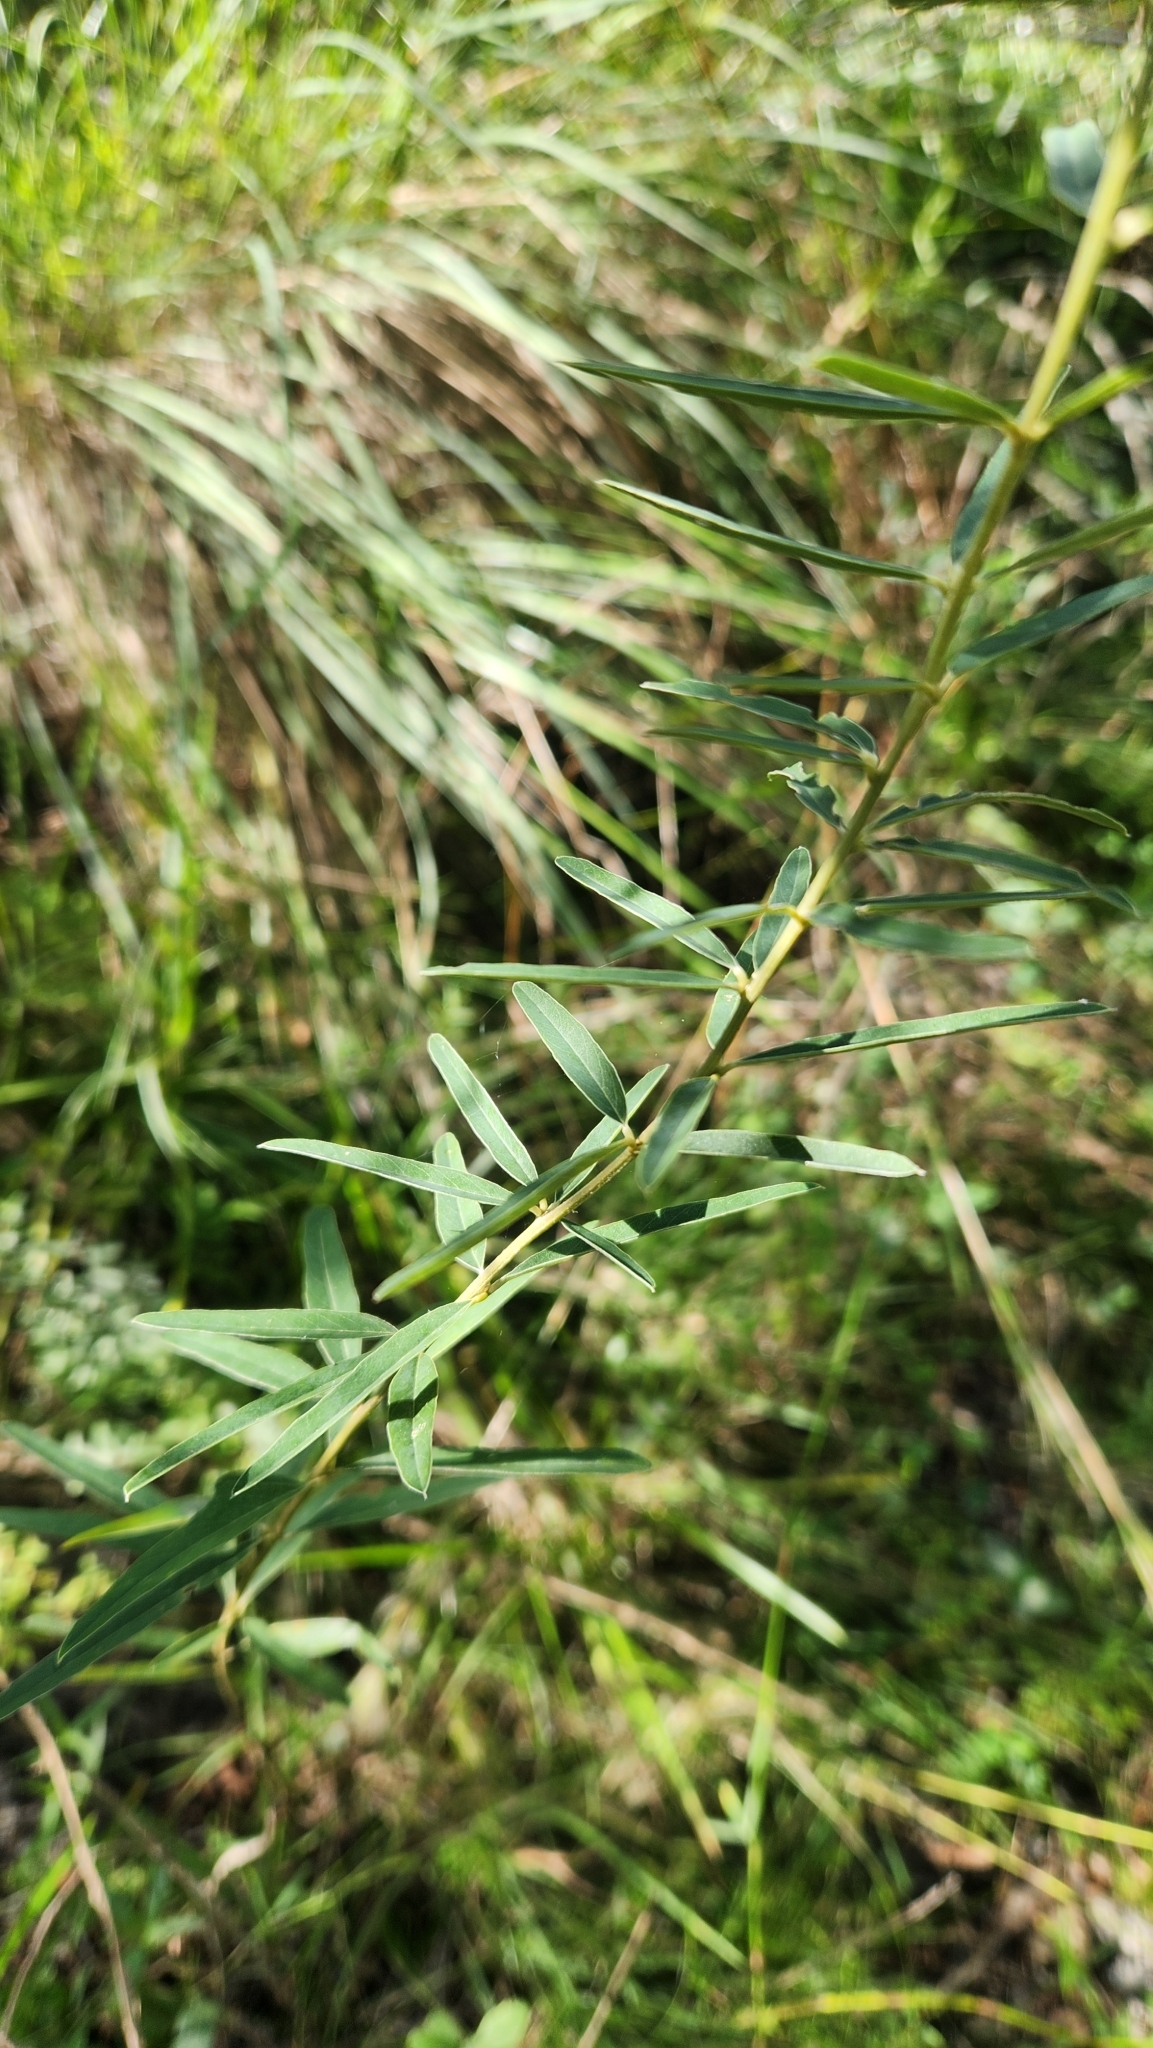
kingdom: Plantae
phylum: Tracheophyta
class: Magnoliopsida
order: Fabales
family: Fabaceae
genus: Collaea
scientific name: Collaea stenophylla
